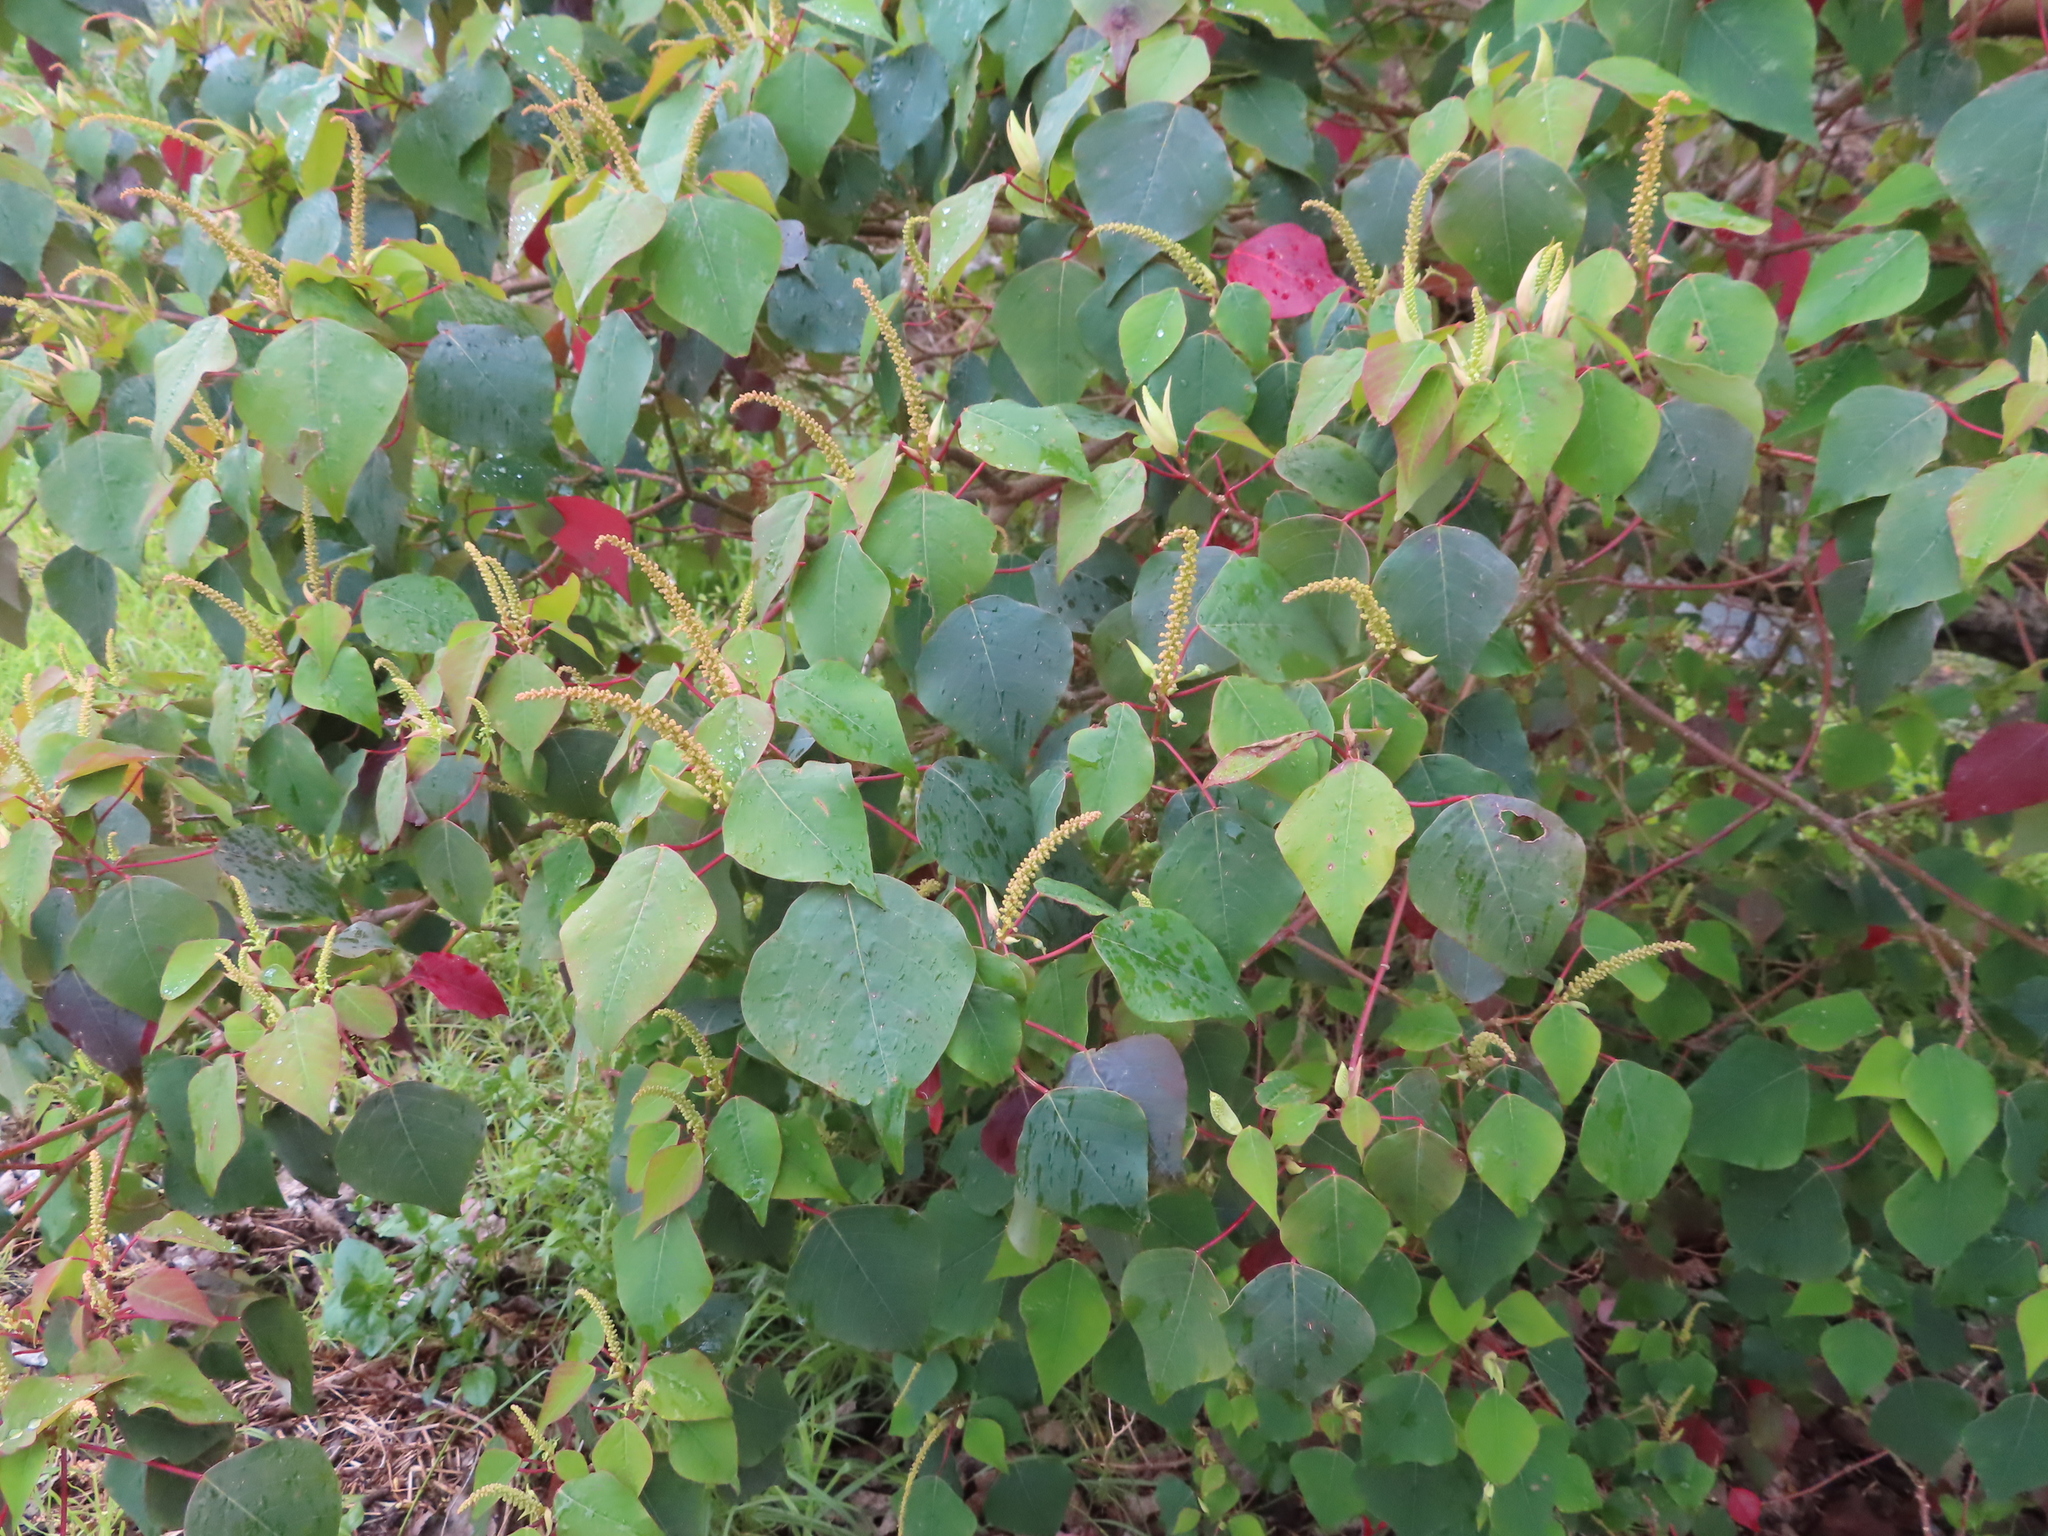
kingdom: Plantae
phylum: Tracheophyta
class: Magnoliopsida
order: Malpighiales
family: Euphorbiaceae
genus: Homalanthus
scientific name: Homalanthus populifolius
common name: Queensland poplar
